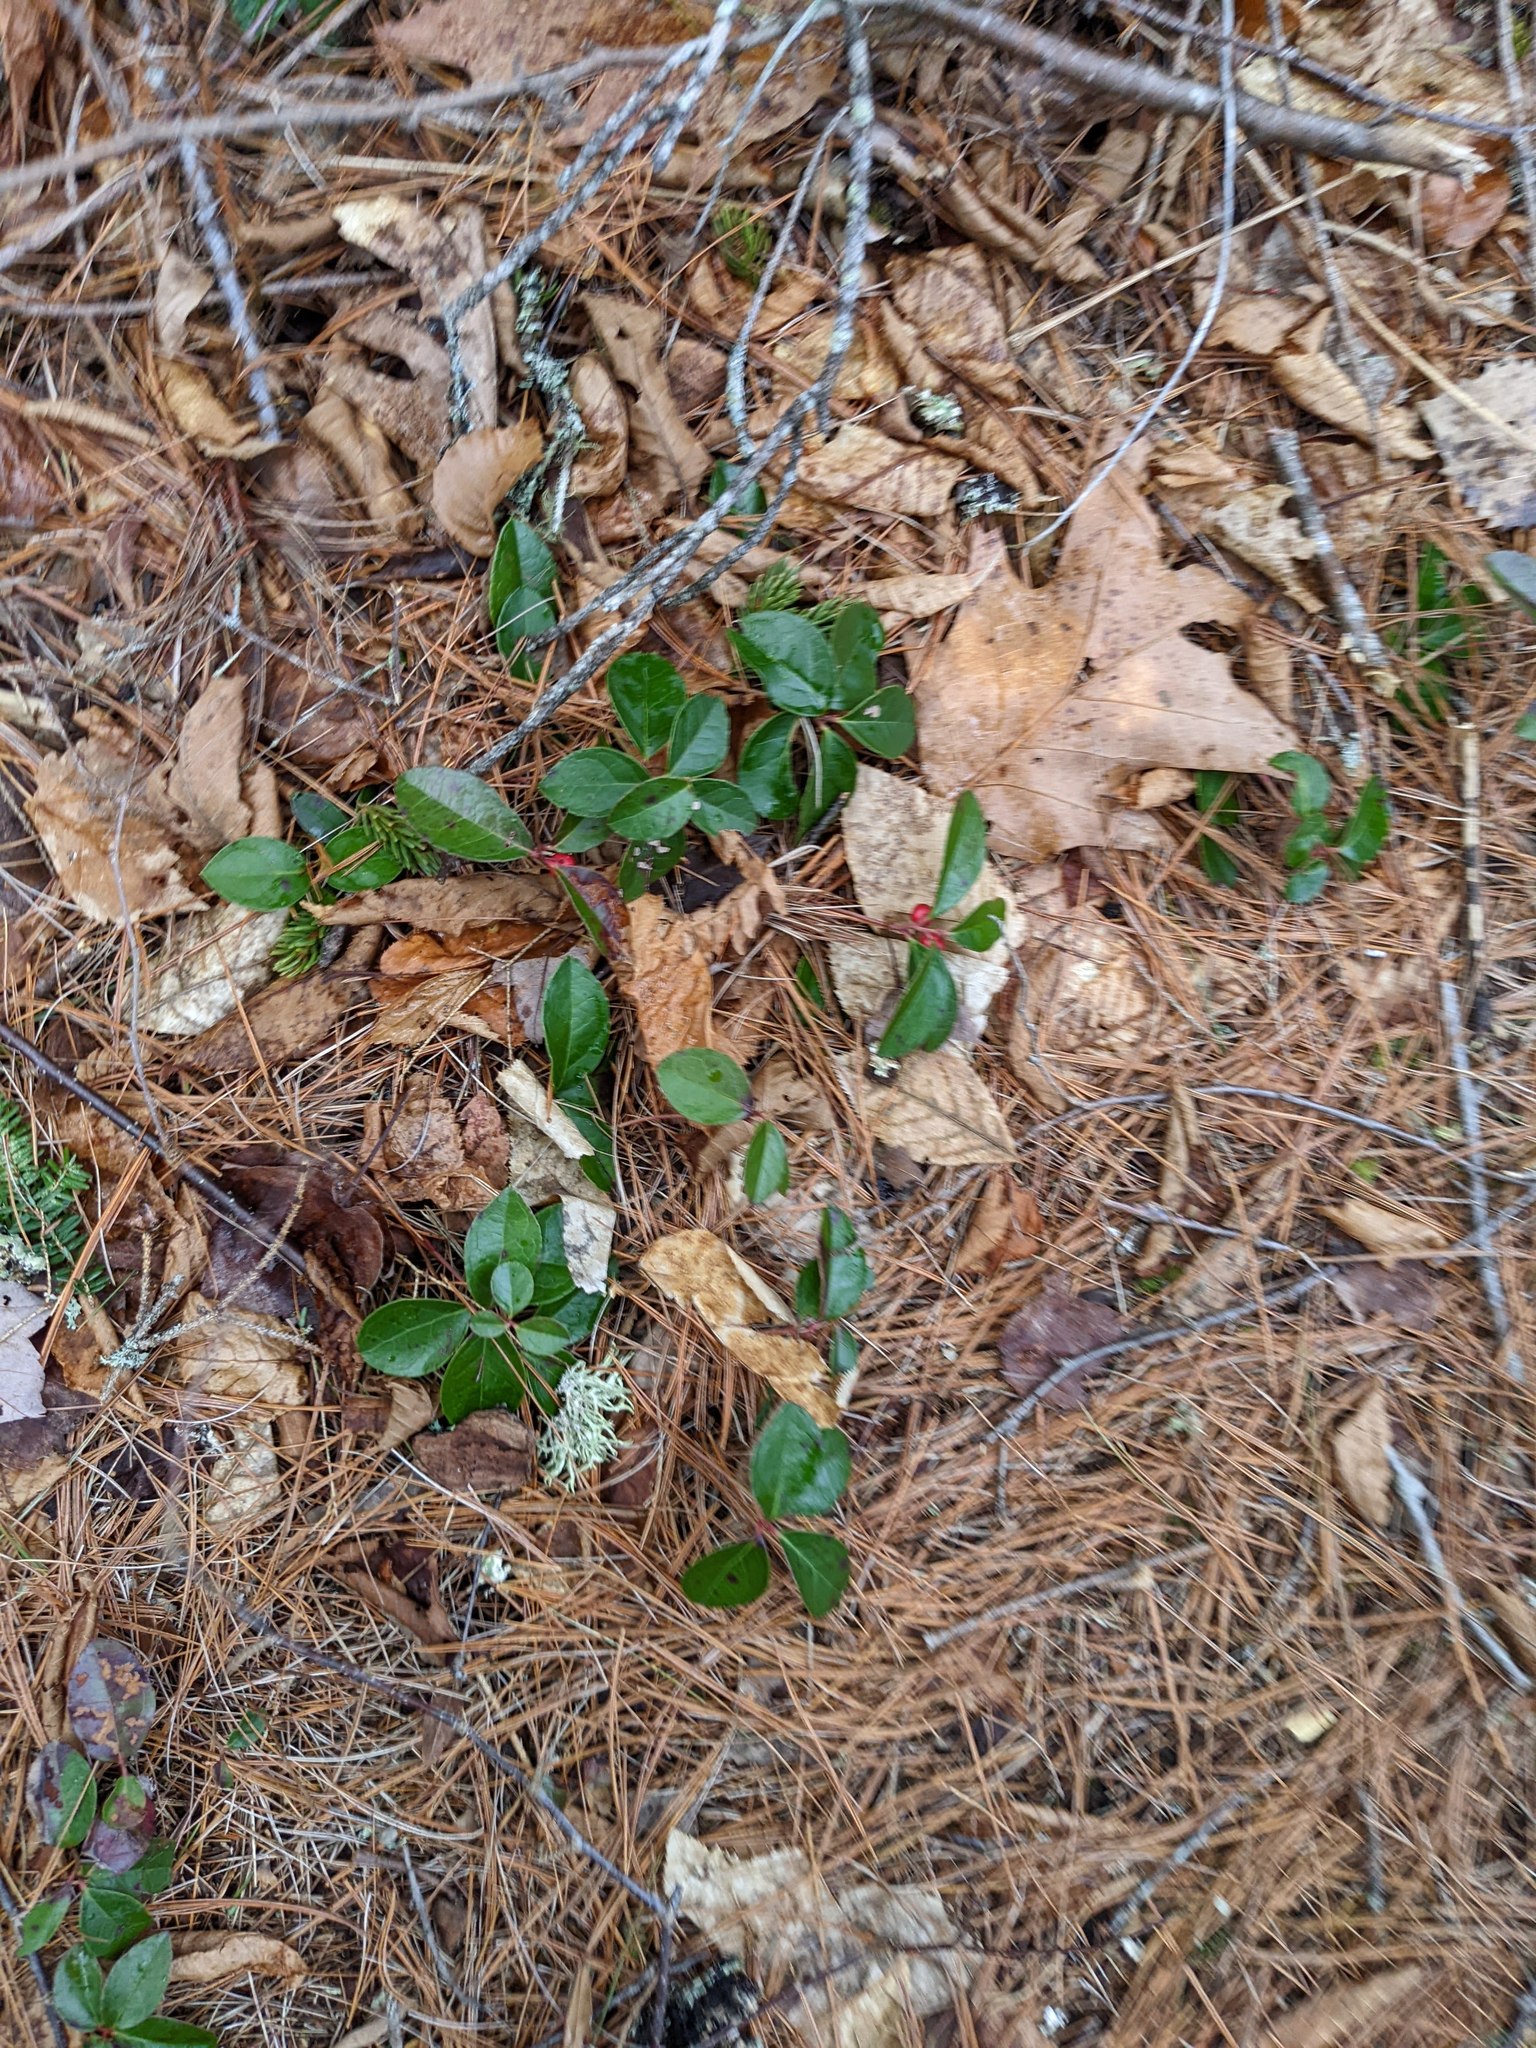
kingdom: Plantae
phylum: Tracheophyta
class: Magnoliopsida
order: Ericales
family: Ericaceae
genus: Gaultheria
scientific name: Gaultheria procumbens
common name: Checkerberry
